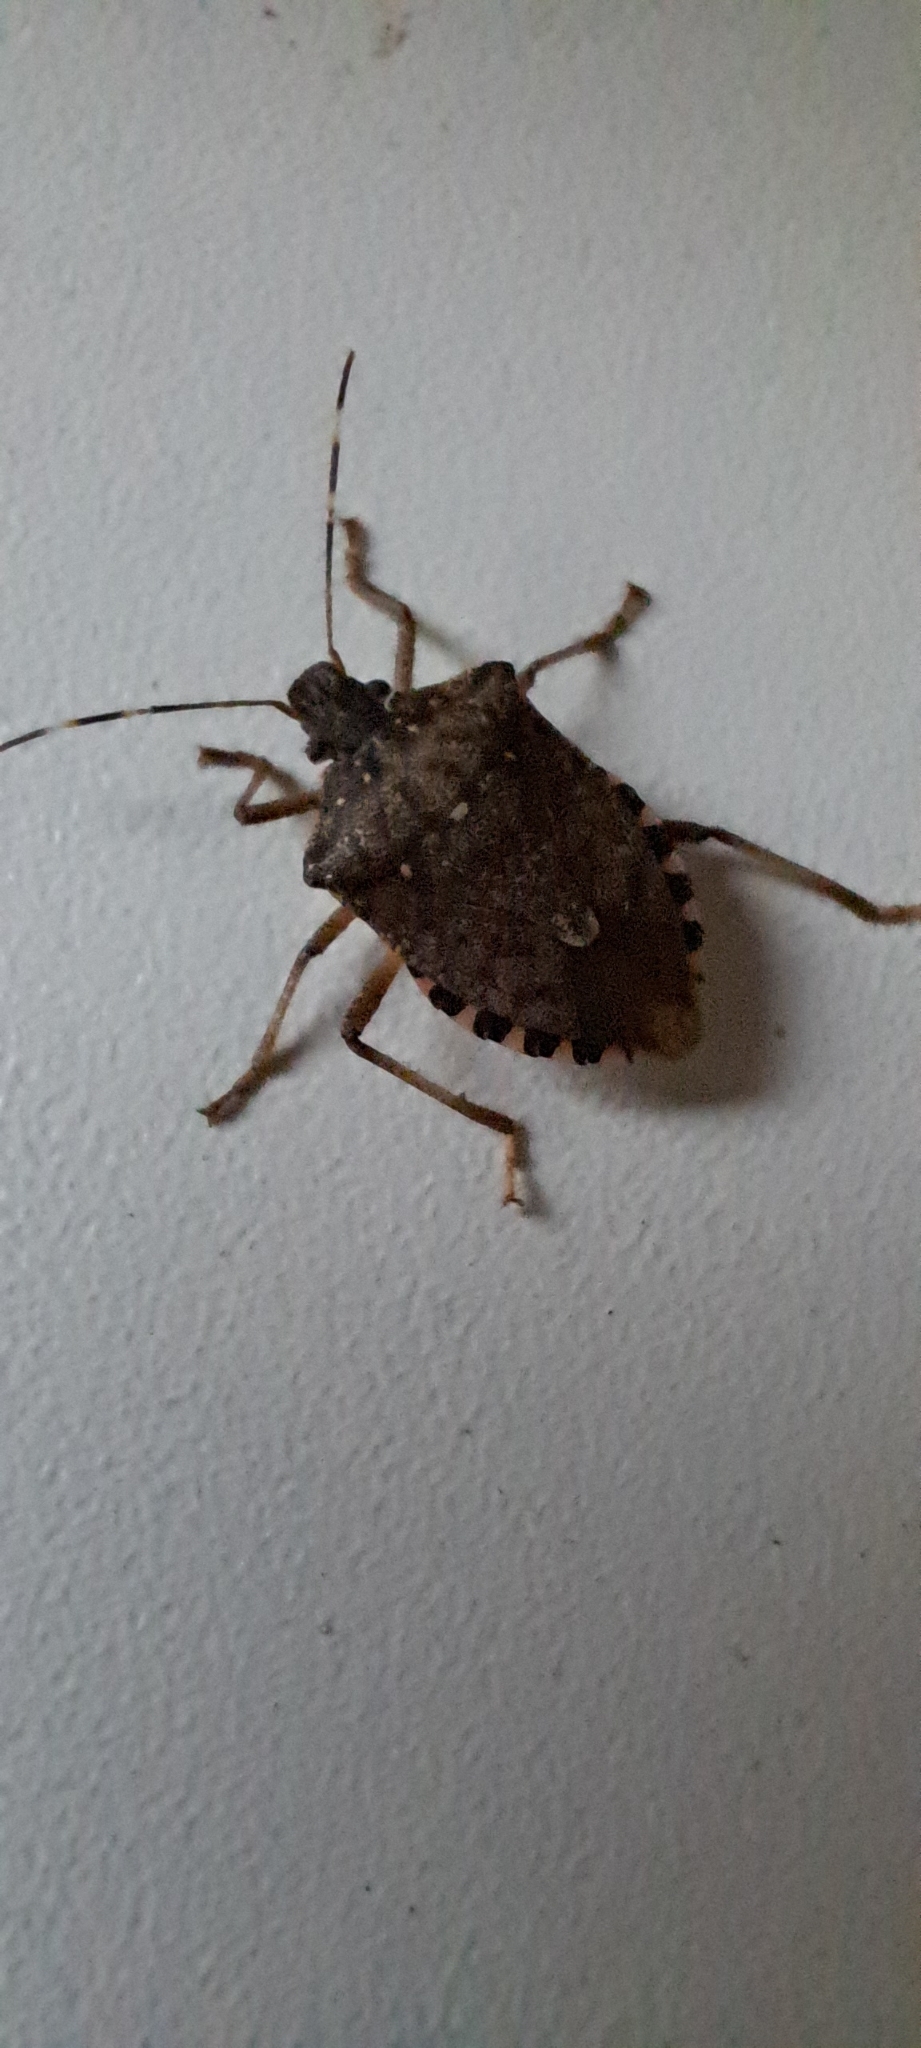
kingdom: Animalia
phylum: Arthropoda
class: Insecta
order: Hemiptera
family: Pentatomidae
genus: Halyomorpha
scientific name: Halyomorpha halys
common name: Brown marmorated stink bug
